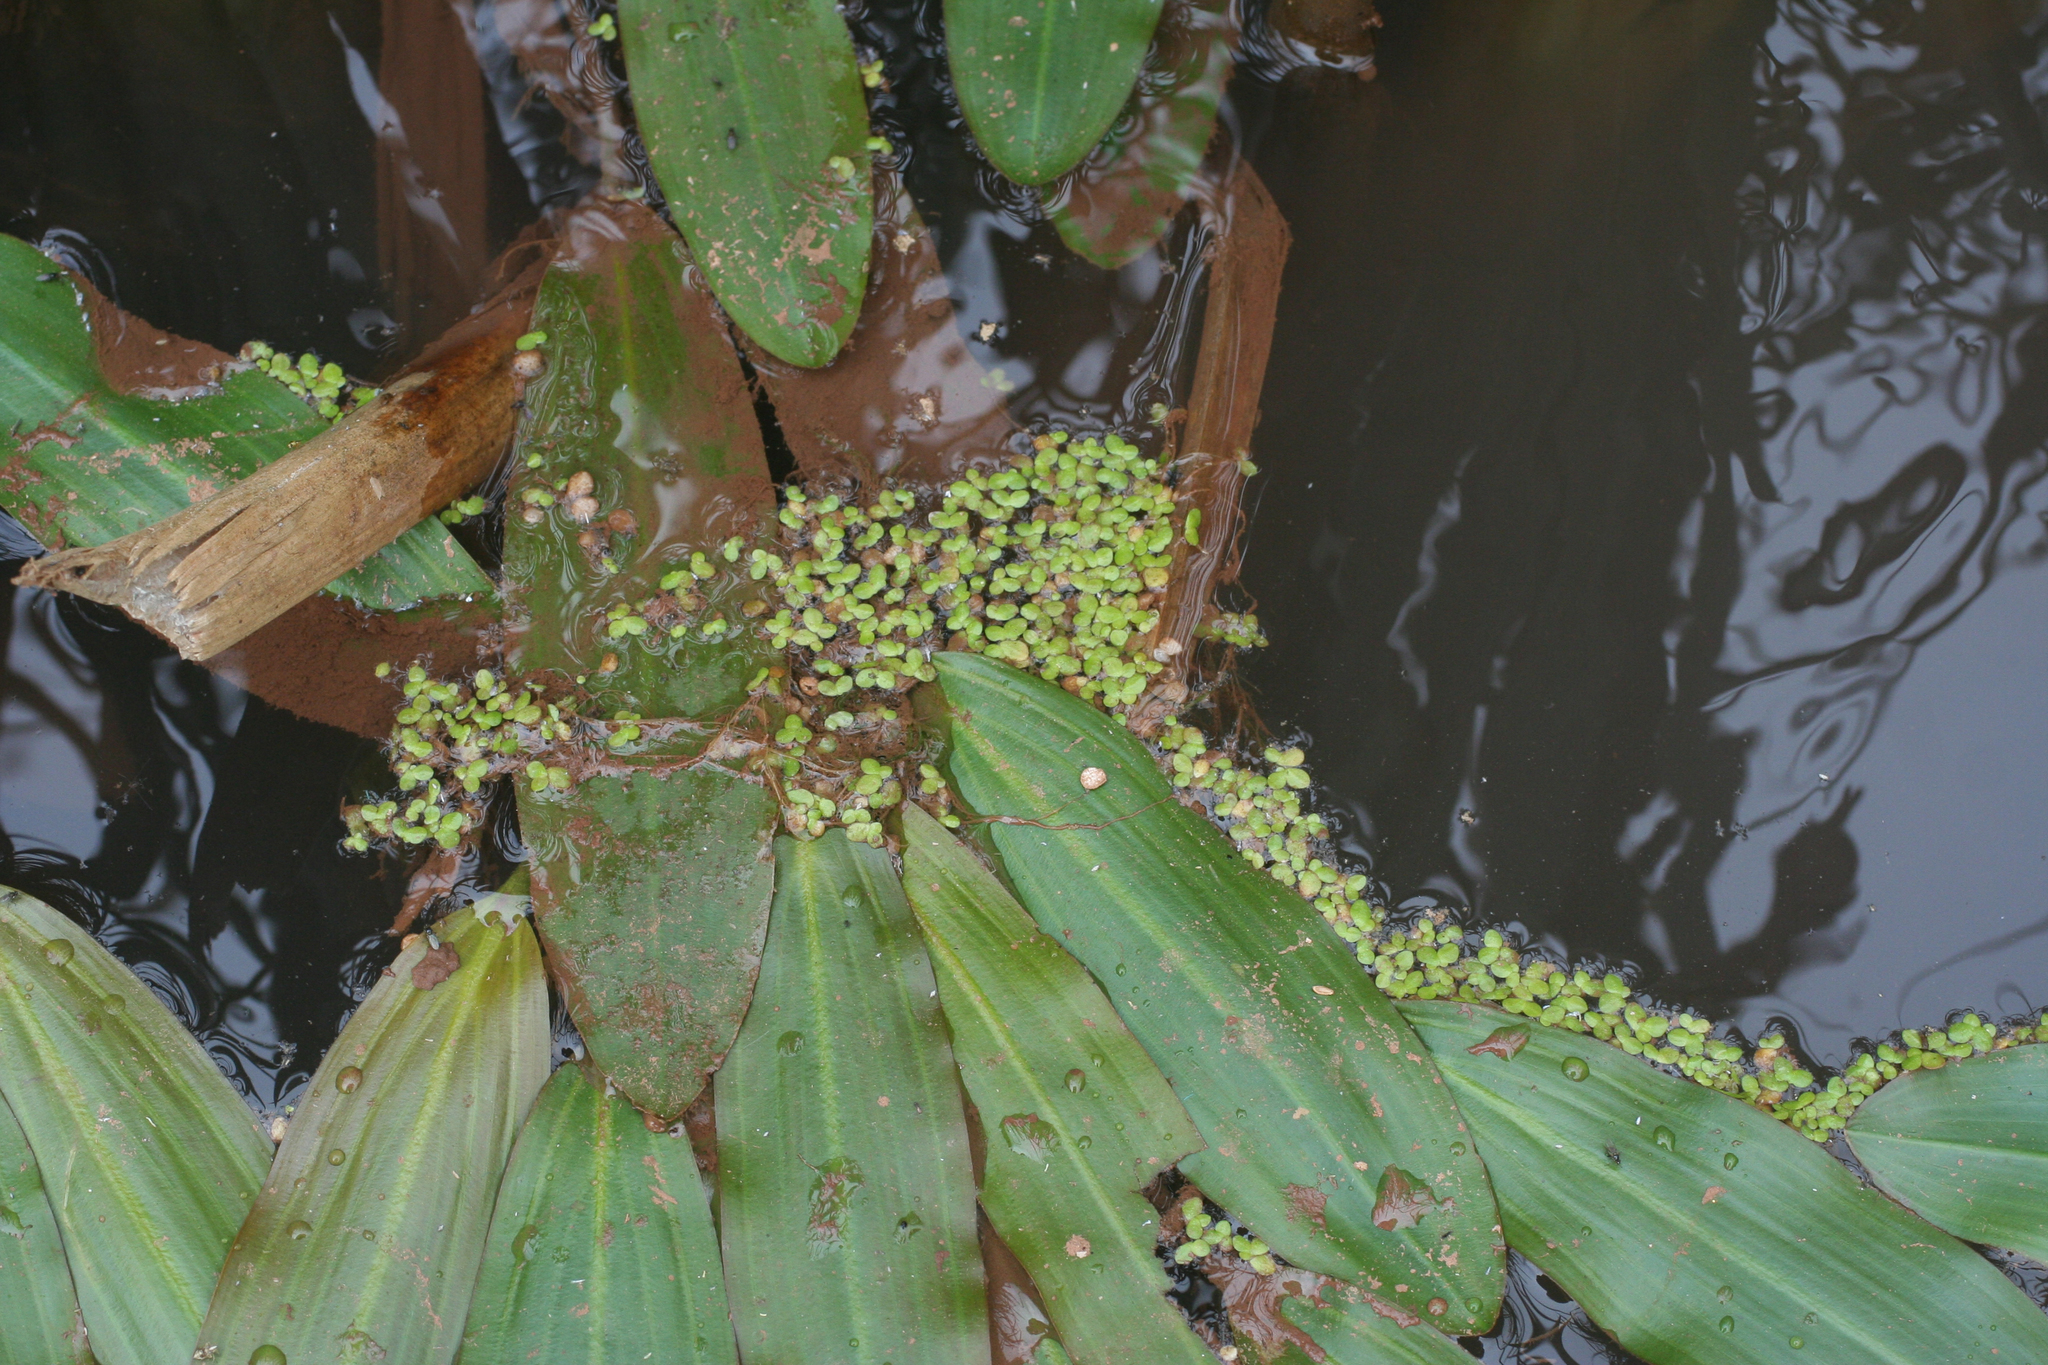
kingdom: Plantae
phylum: Tracheophyta
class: Liliopsida
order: Alismatales
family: Potamogetonaceae
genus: Potamogeton
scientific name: Potamogeton nodosus
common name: Loddon pondweed
